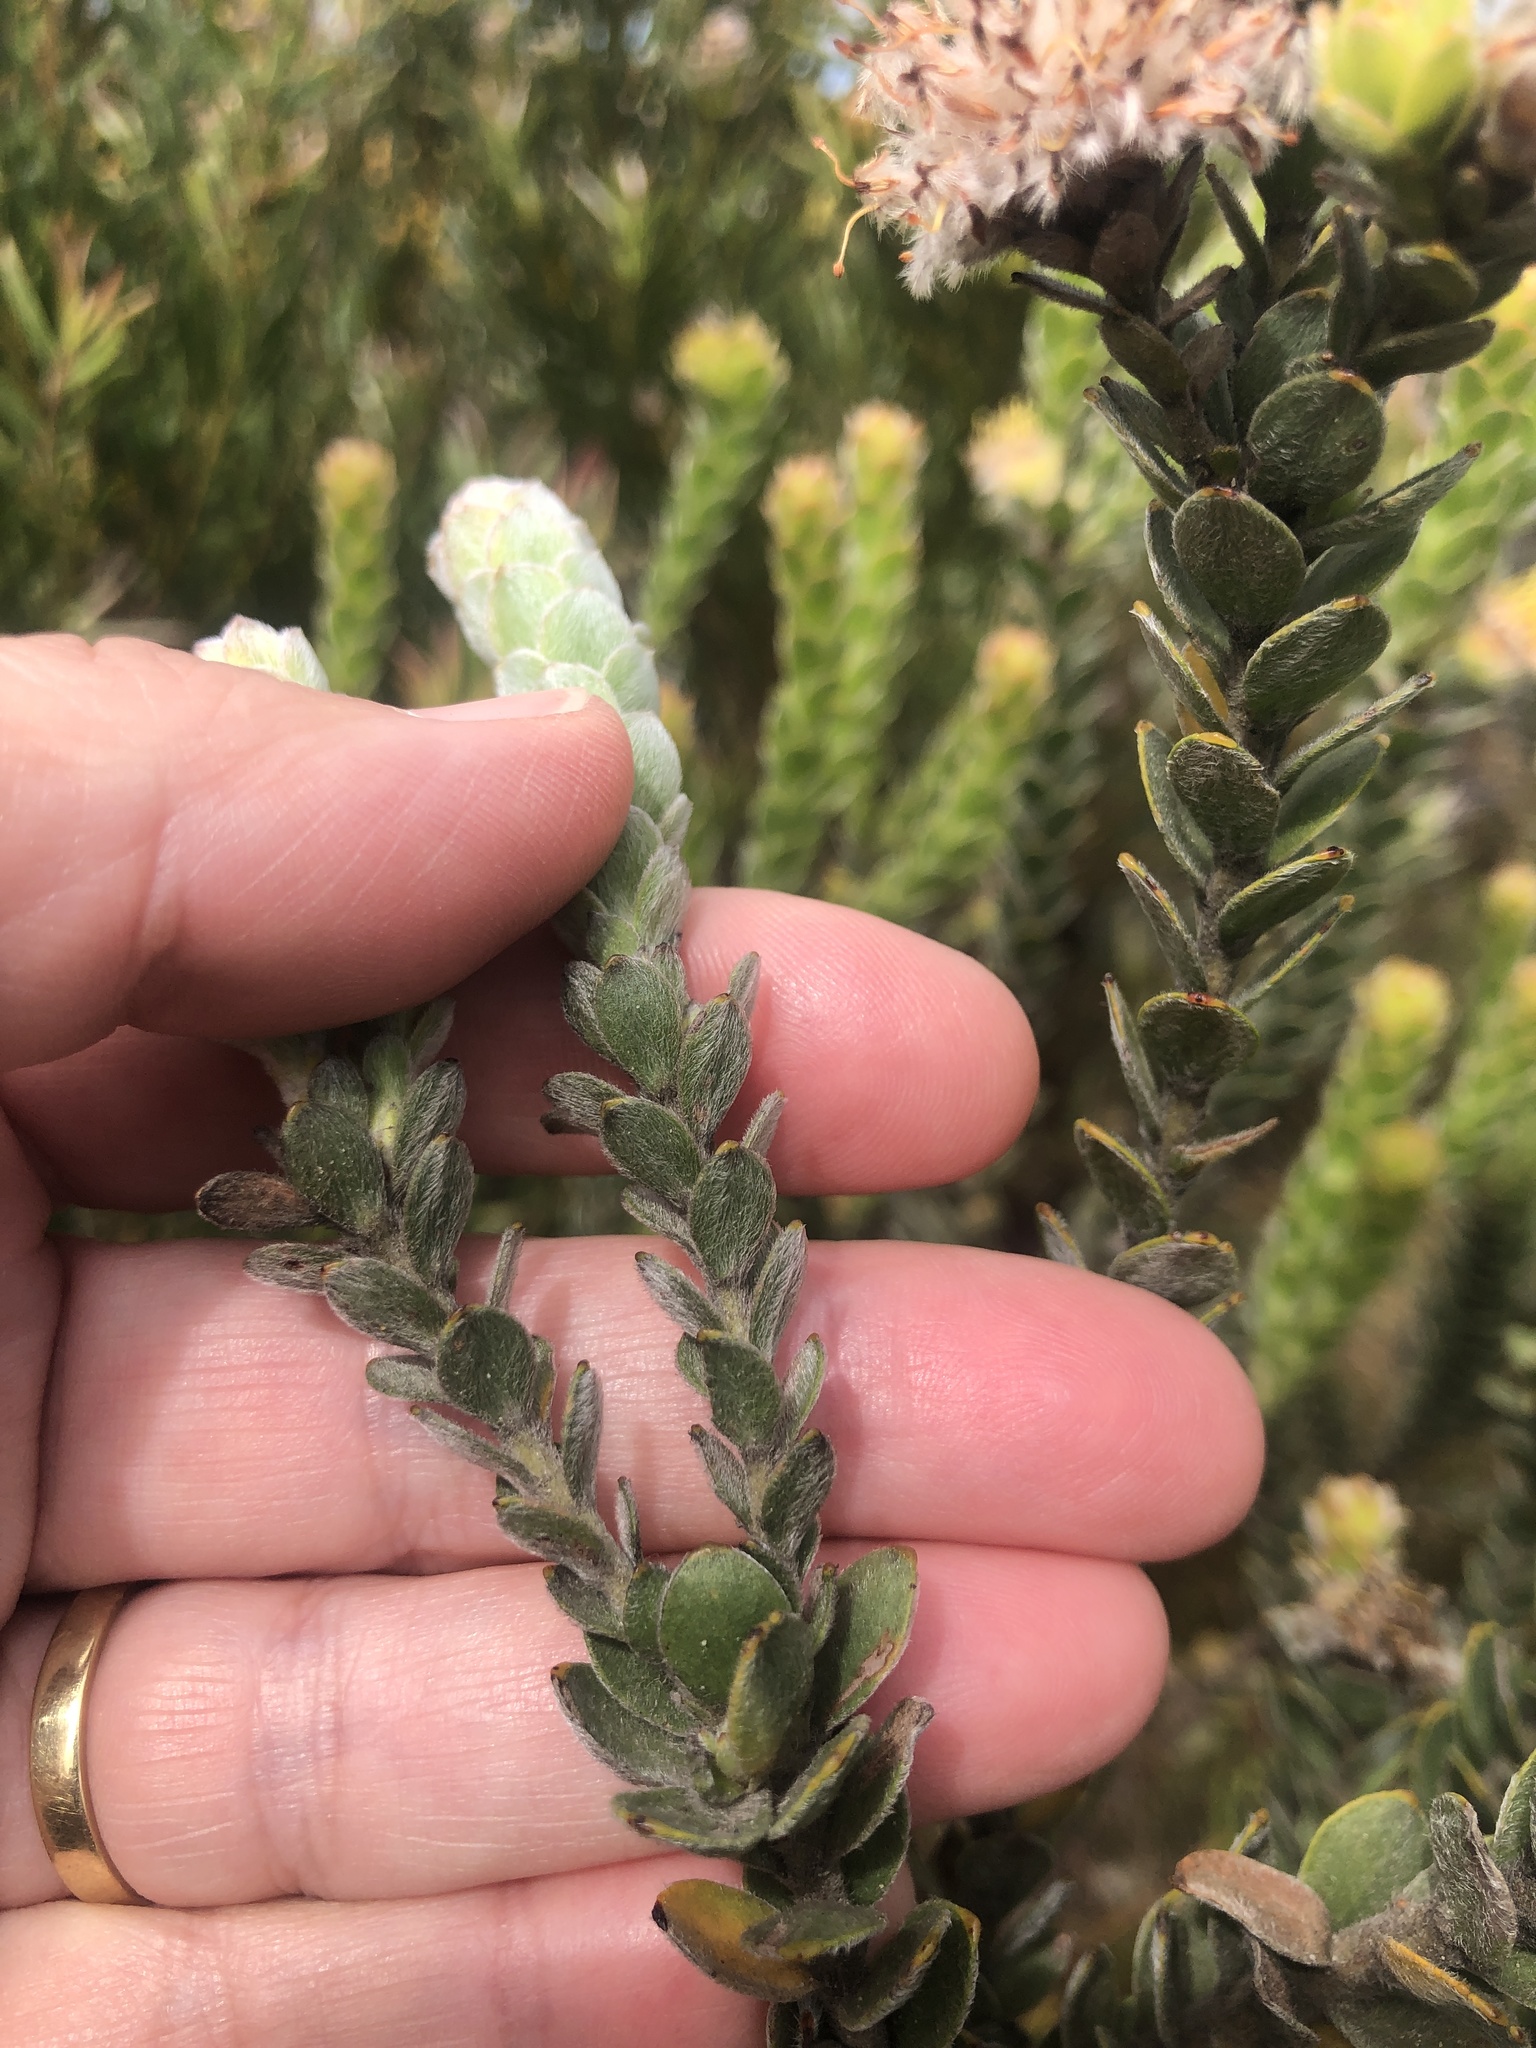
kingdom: Plantae
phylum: Tracheophyta
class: Magnoliopsida
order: Proteales
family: Proteaceae
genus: Leucospermum
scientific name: Leucospermum truncatulum
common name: Oval-leaf pincushion
